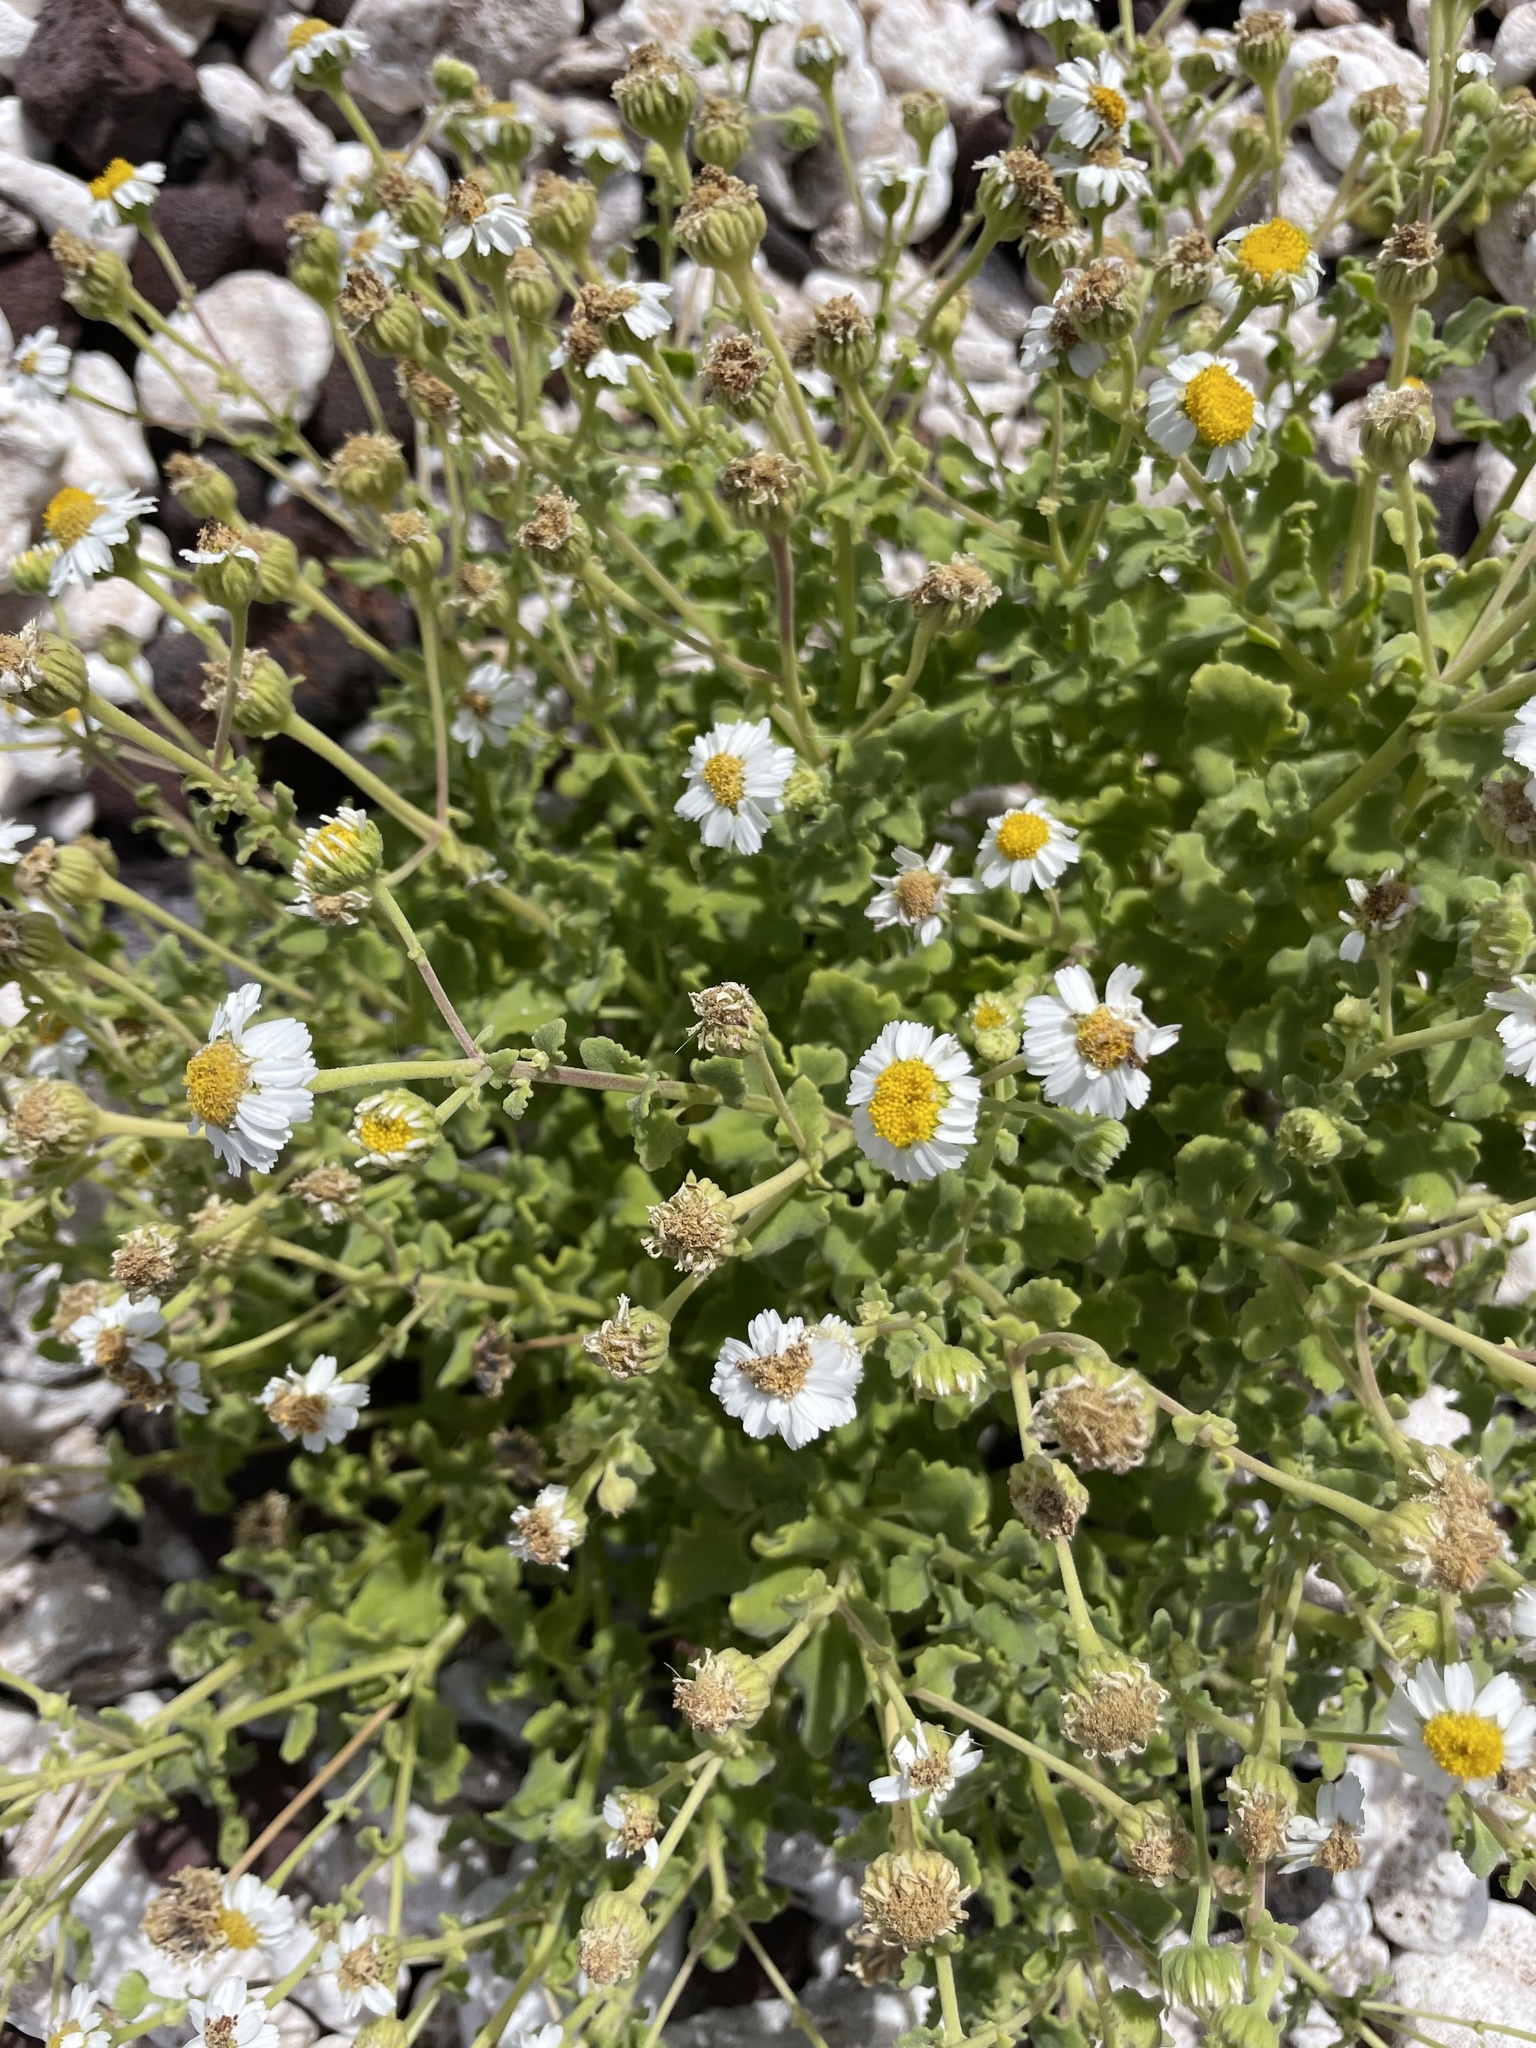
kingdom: Plantae
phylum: Tracheophyta
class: Magnoliopsida
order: Asterales
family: Asteraceae
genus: Perityle
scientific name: Perityle socorrosensis
